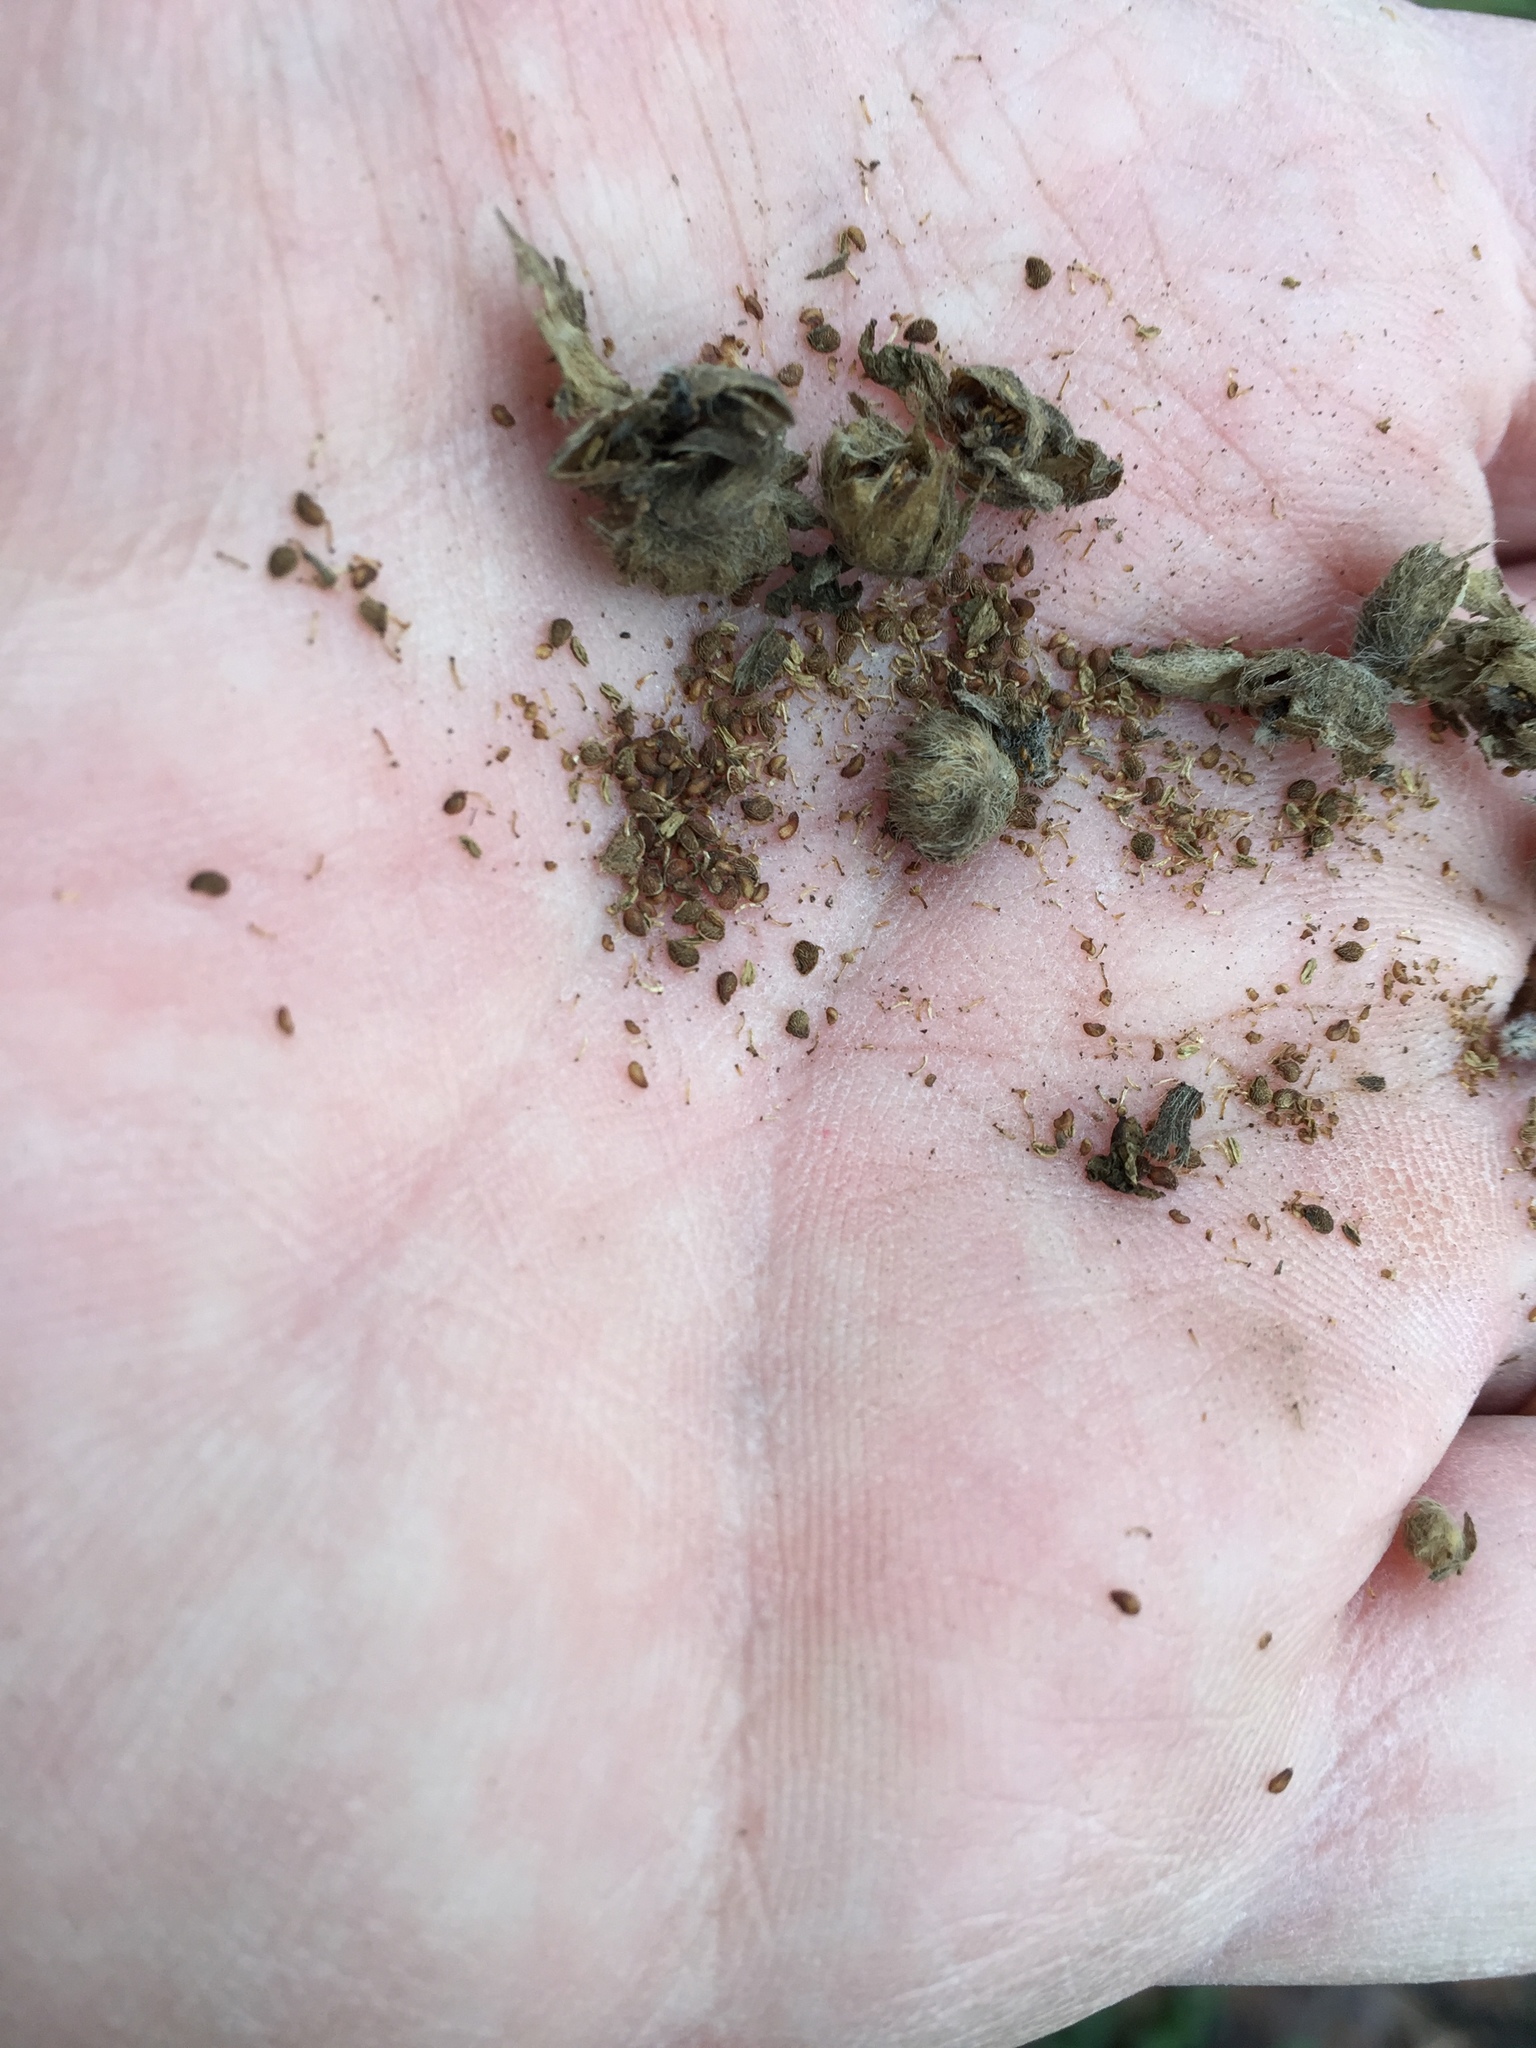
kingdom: Plantae
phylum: Tracheophyta
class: Magnoliopsida
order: Rosales
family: Rosaceae
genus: Potentilla
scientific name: Potentilla recta
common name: Sulphur cinquefoil
